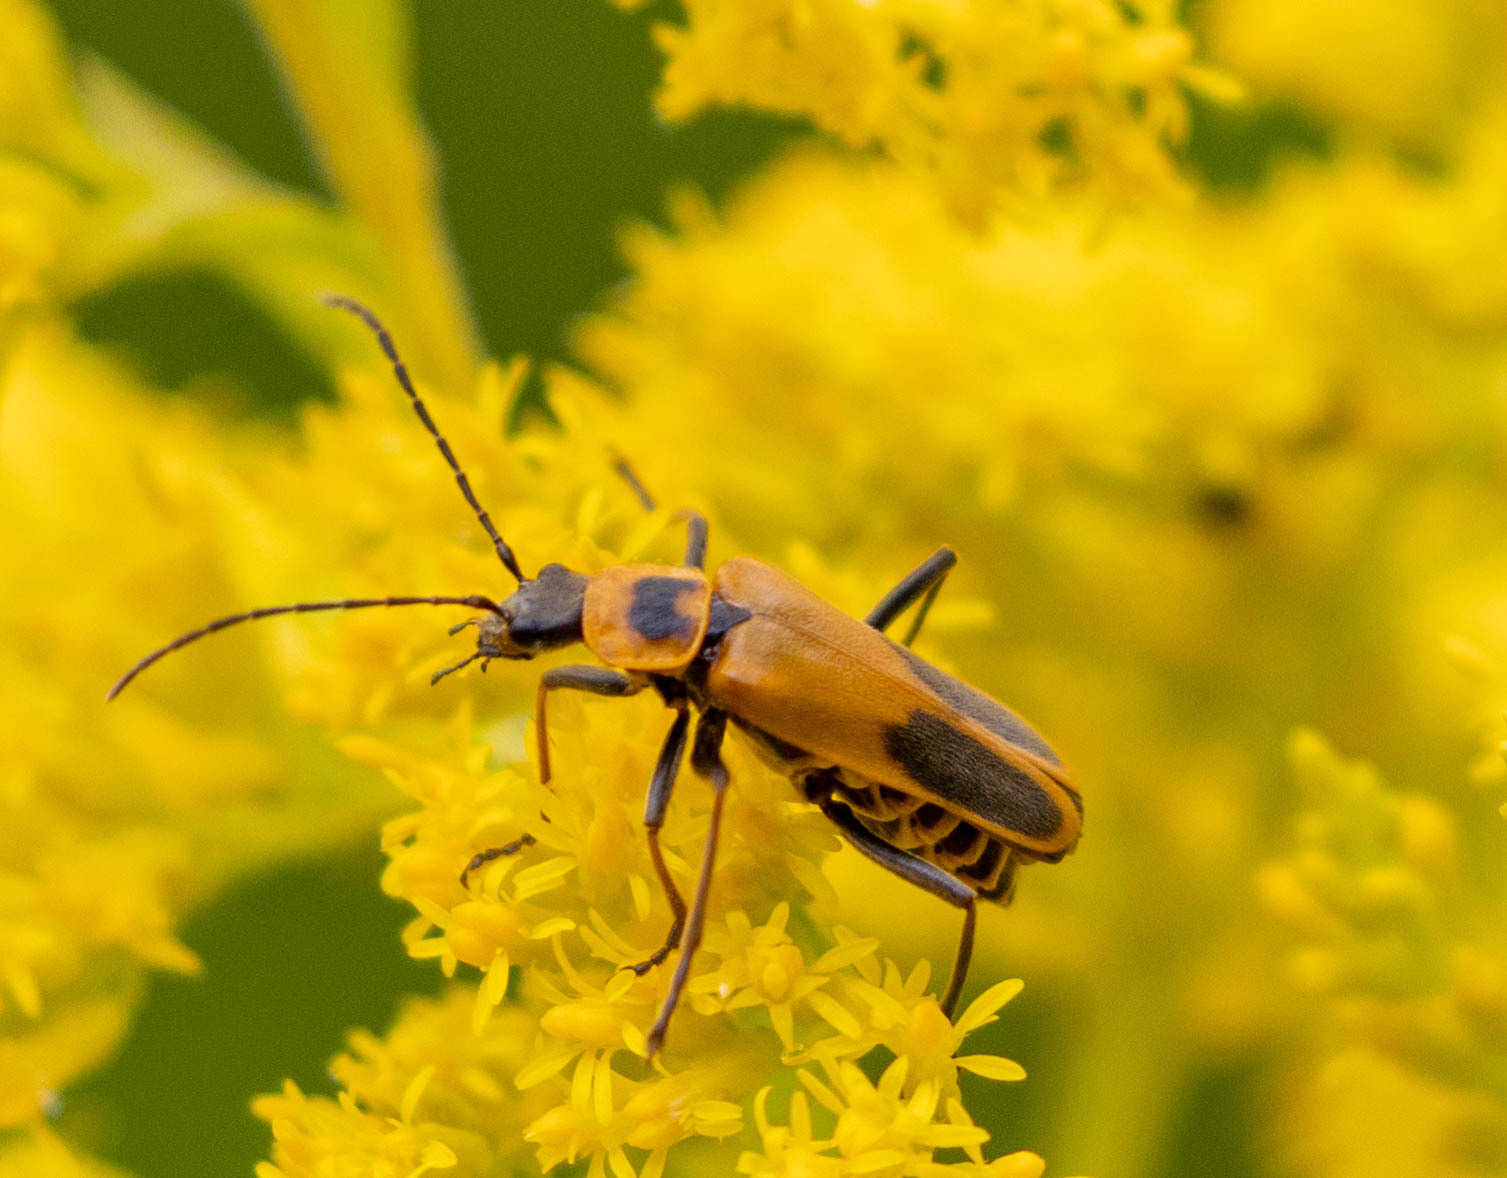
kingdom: Animalia
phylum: Arthropoda
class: Insecta
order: Coleoptera
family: Cantharidae
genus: Chauliognathus
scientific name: Chauliognathus pensylvanicus
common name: Goldenrod soldier beetle
